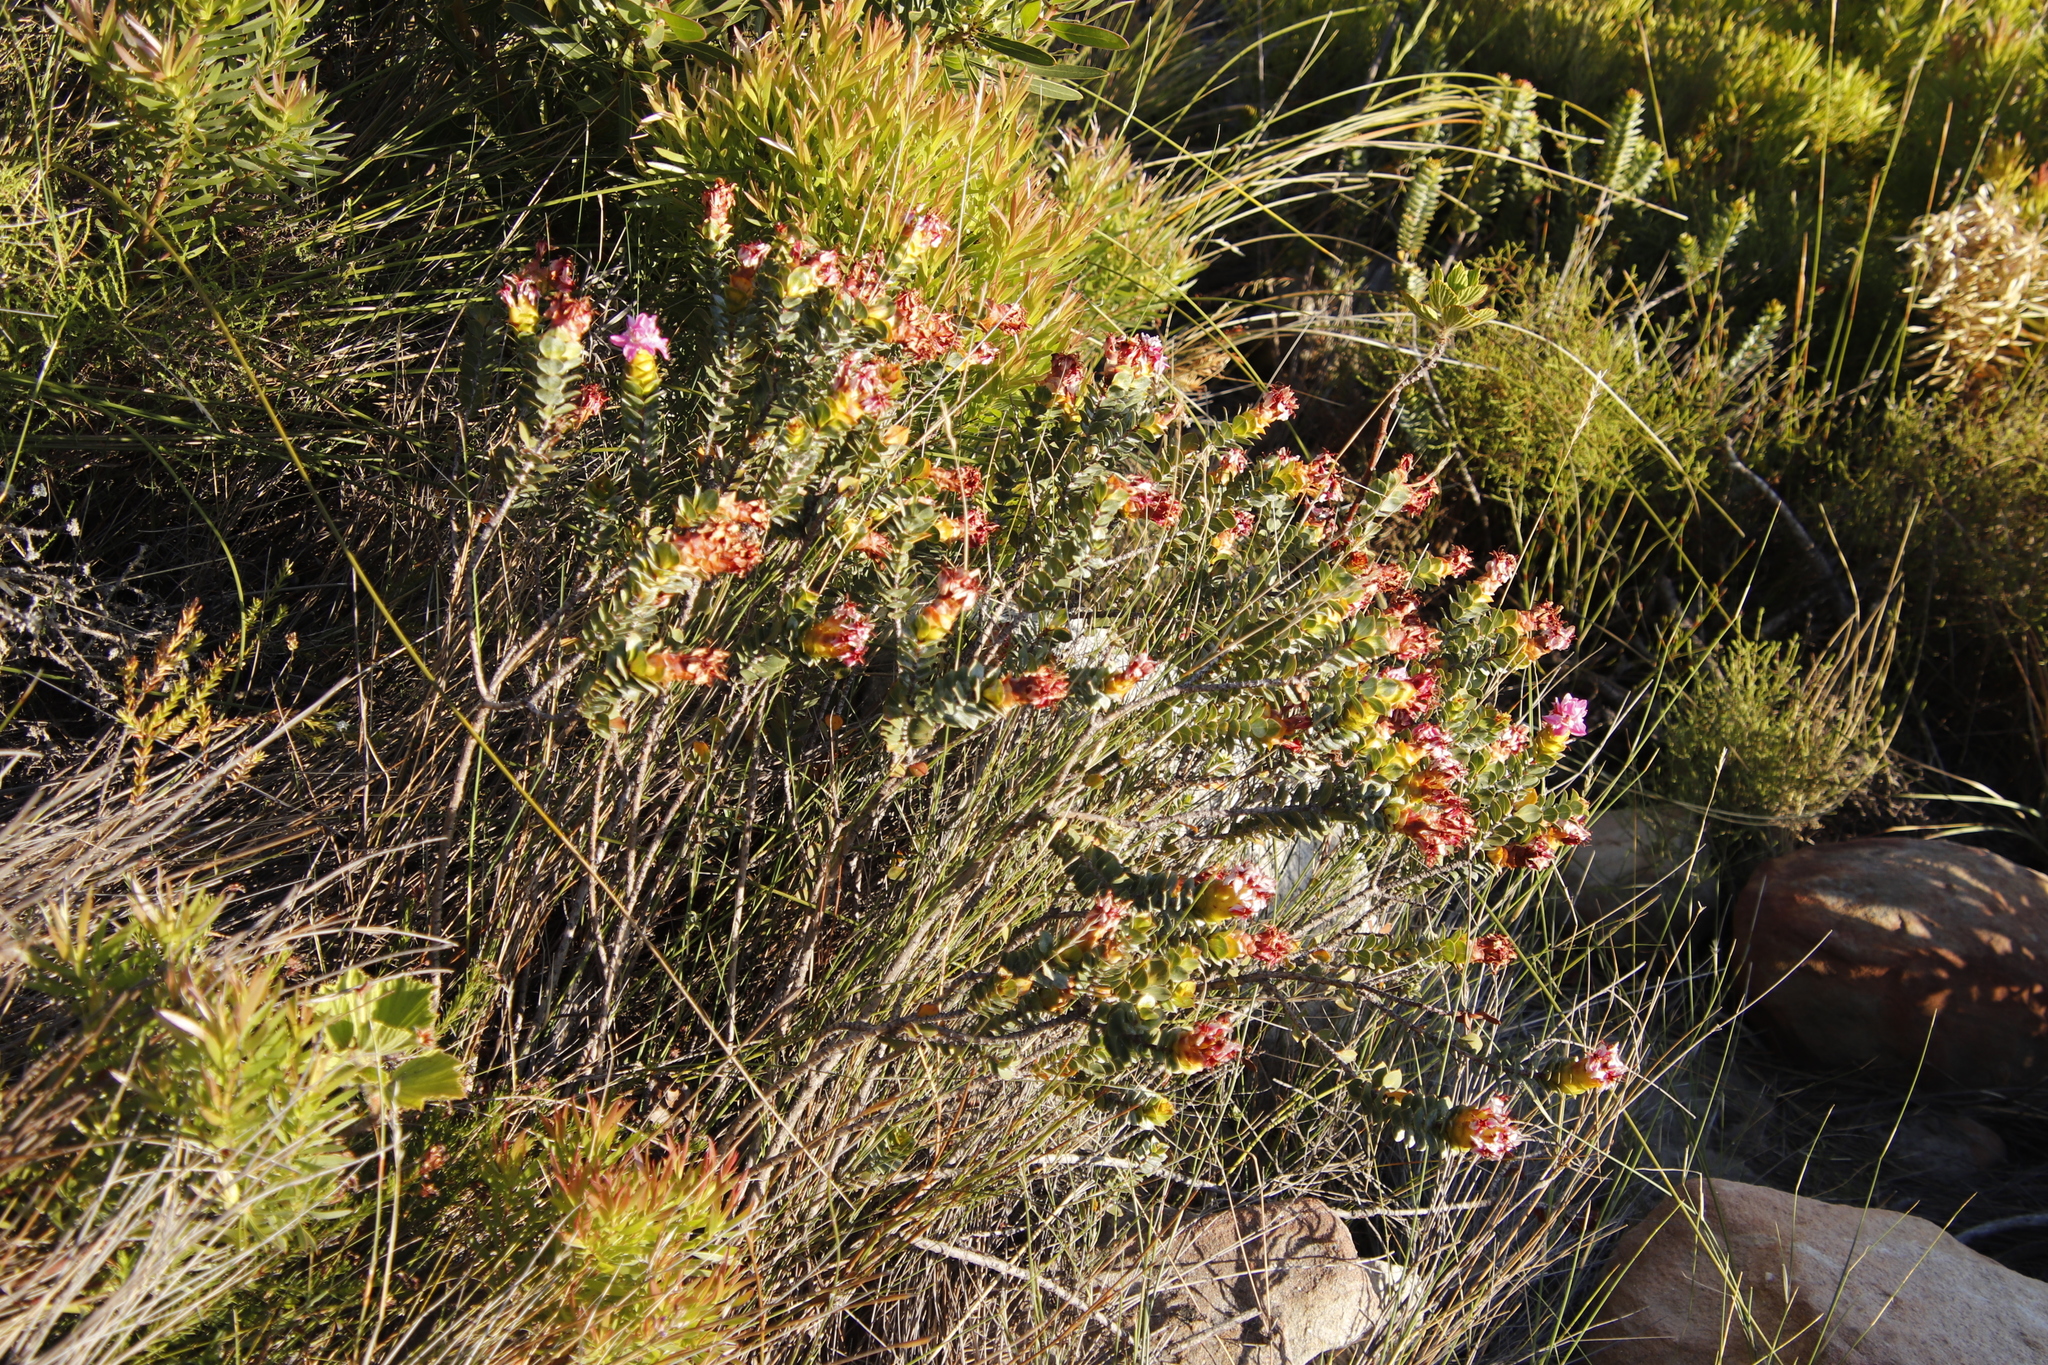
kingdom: Plantae
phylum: Tracheophyta
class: Magnoliopsida
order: Myrtales
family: Penaeaceae
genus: Saltera
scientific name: Saltera sarcocolla
